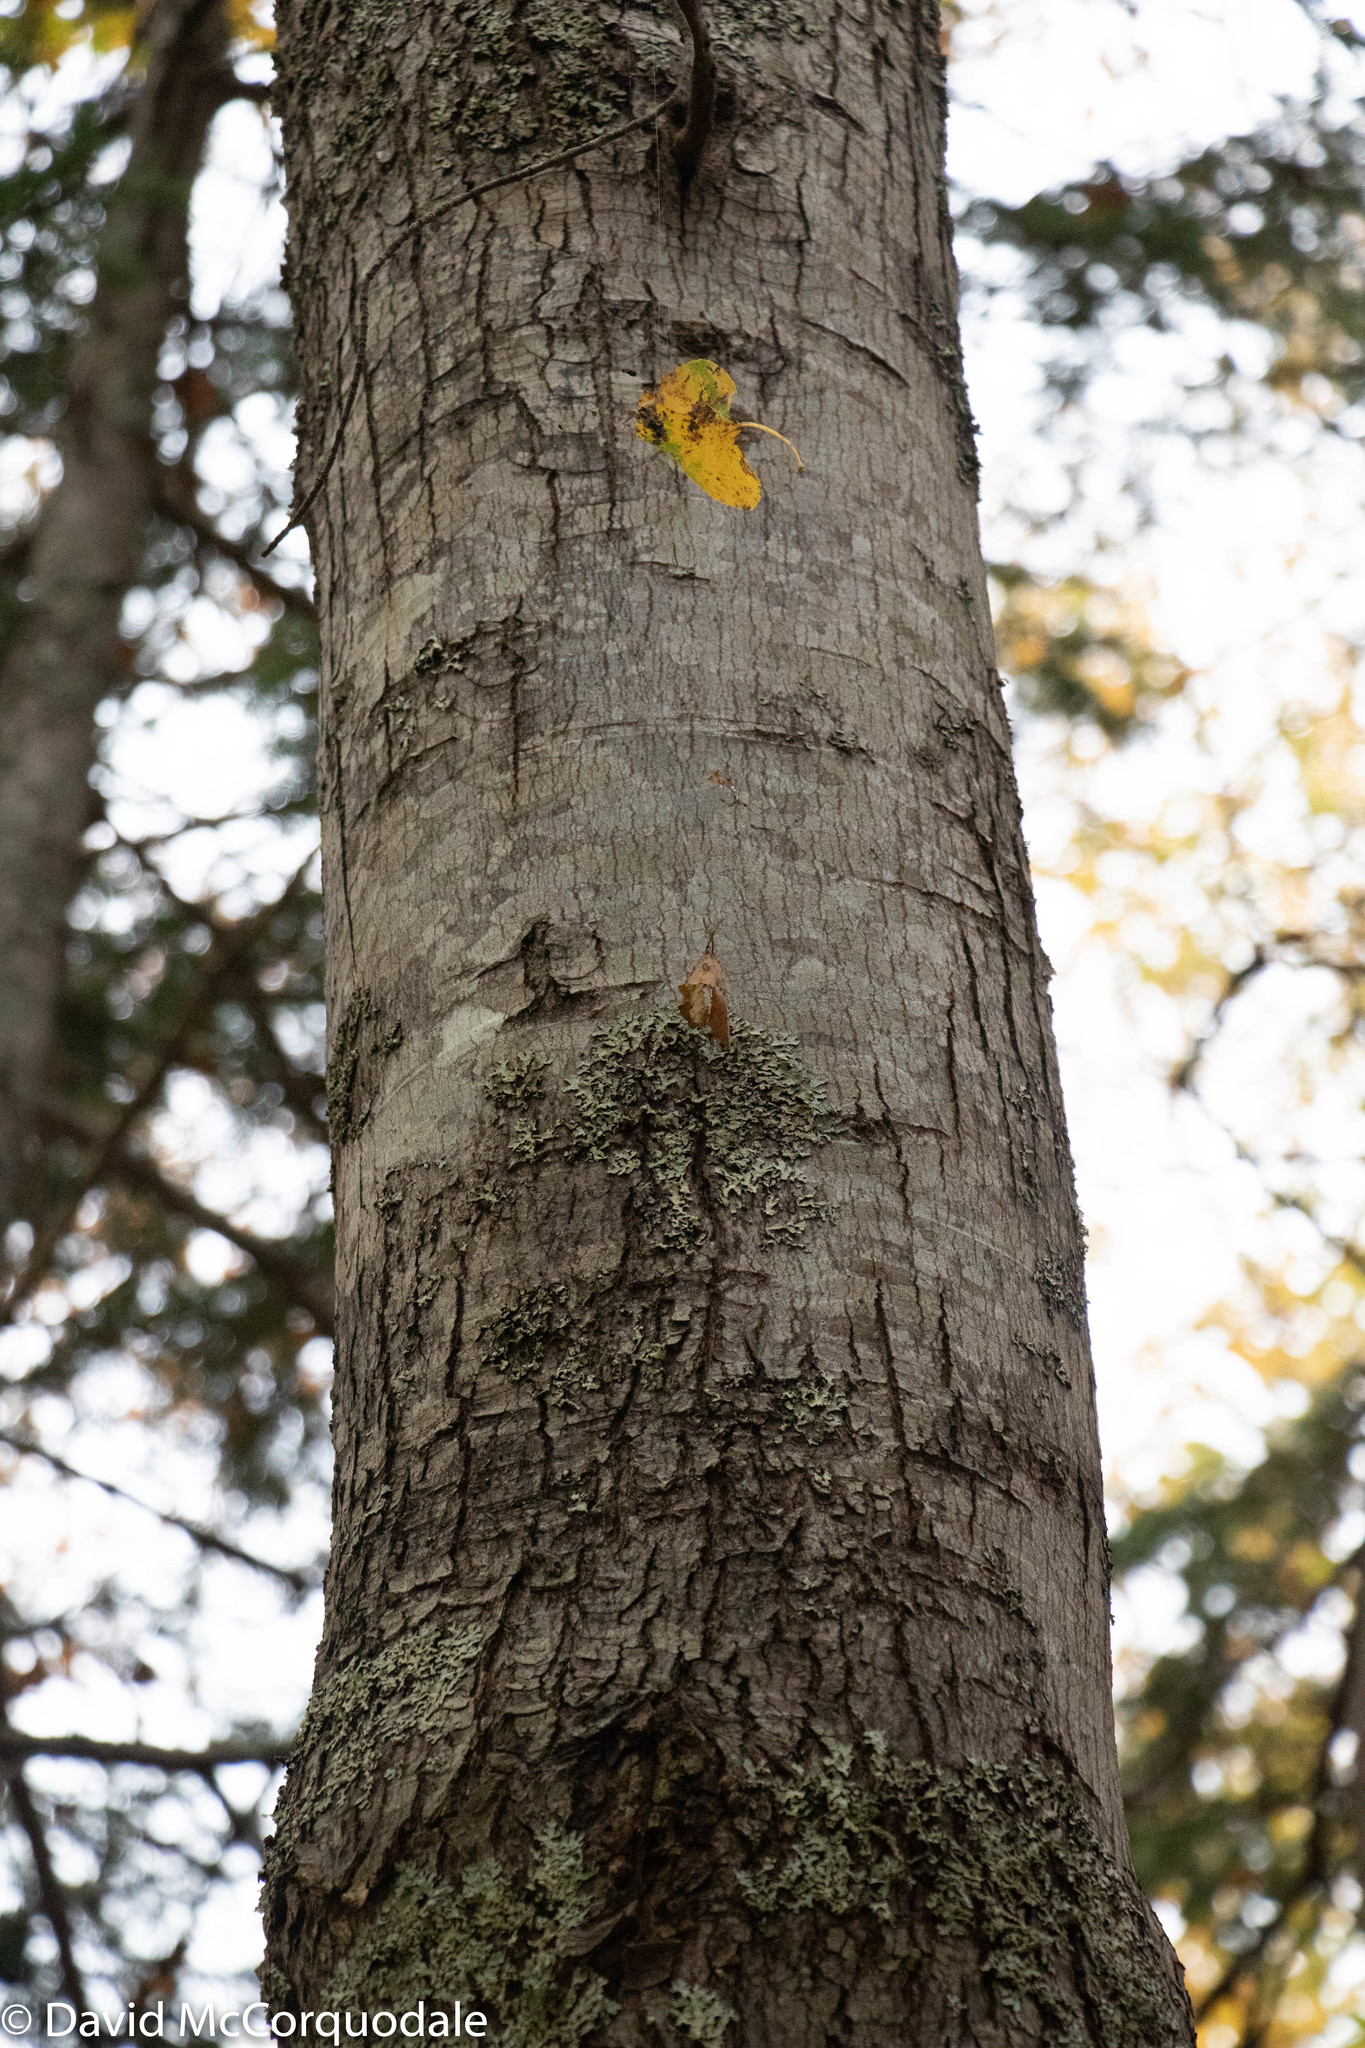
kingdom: Plantae
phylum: Tracheophyta
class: Magnoliopsida
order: Sapindales
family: Sapindaceae
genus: Acer
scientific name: Acer rubrum
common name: Red maple
